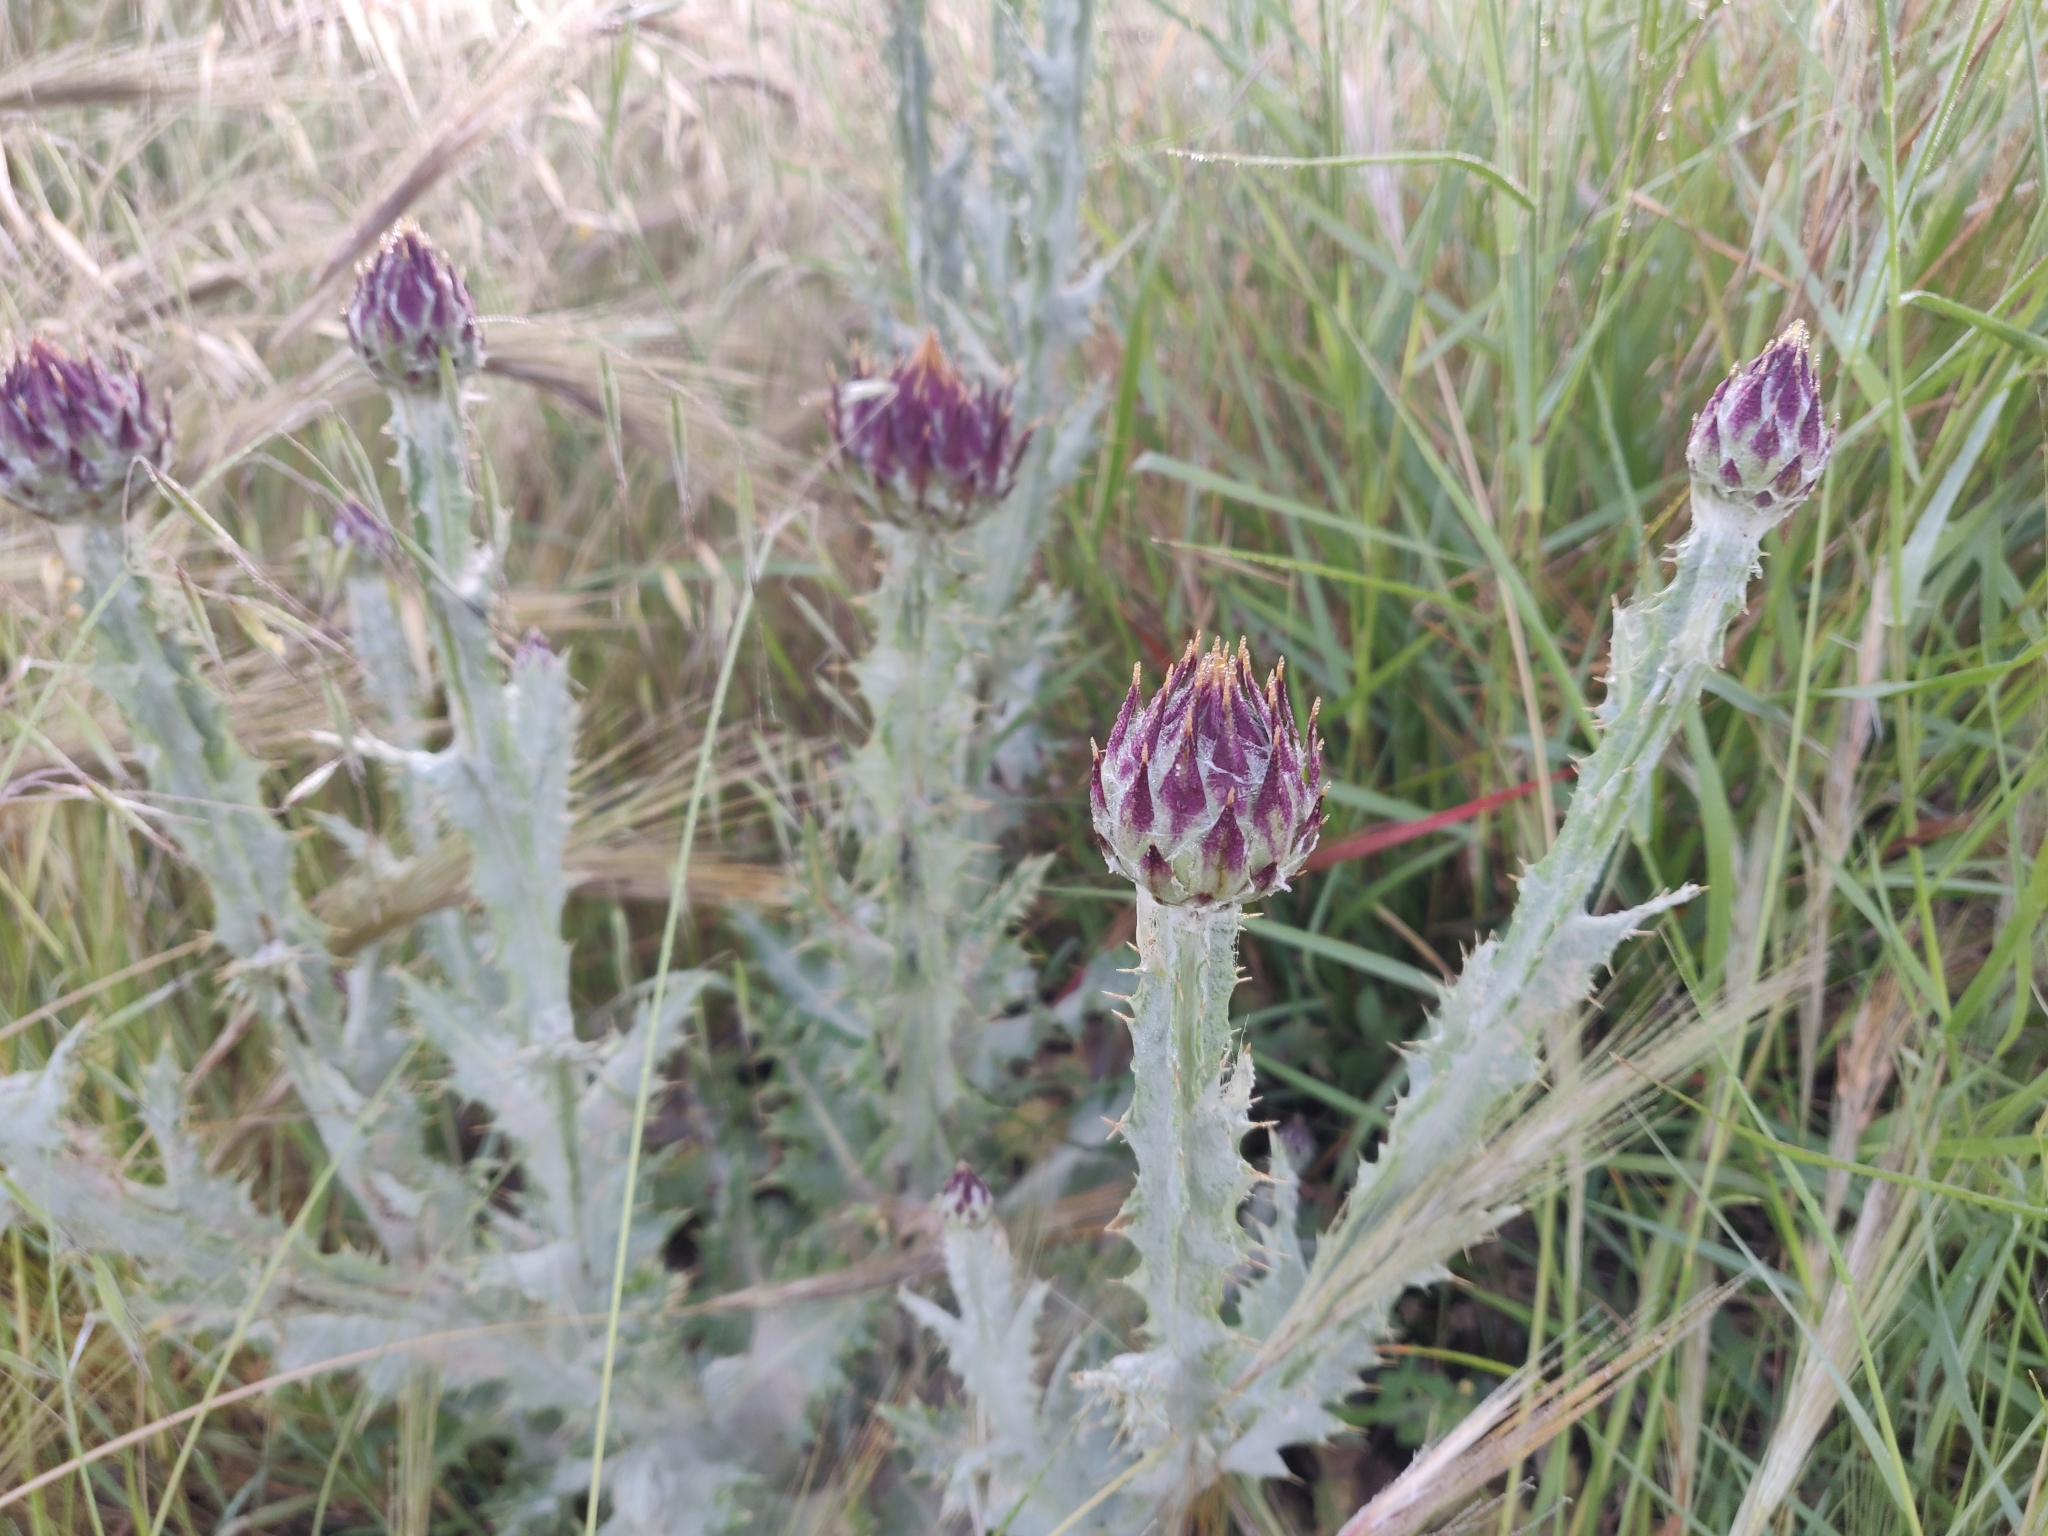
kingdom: Plantae
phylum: Tracheophyta
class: Magnoliopsida
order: Asterales
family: Asteraceae
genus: Onopordum
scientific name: Onopordum illyricum
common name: Illyrian thistle
